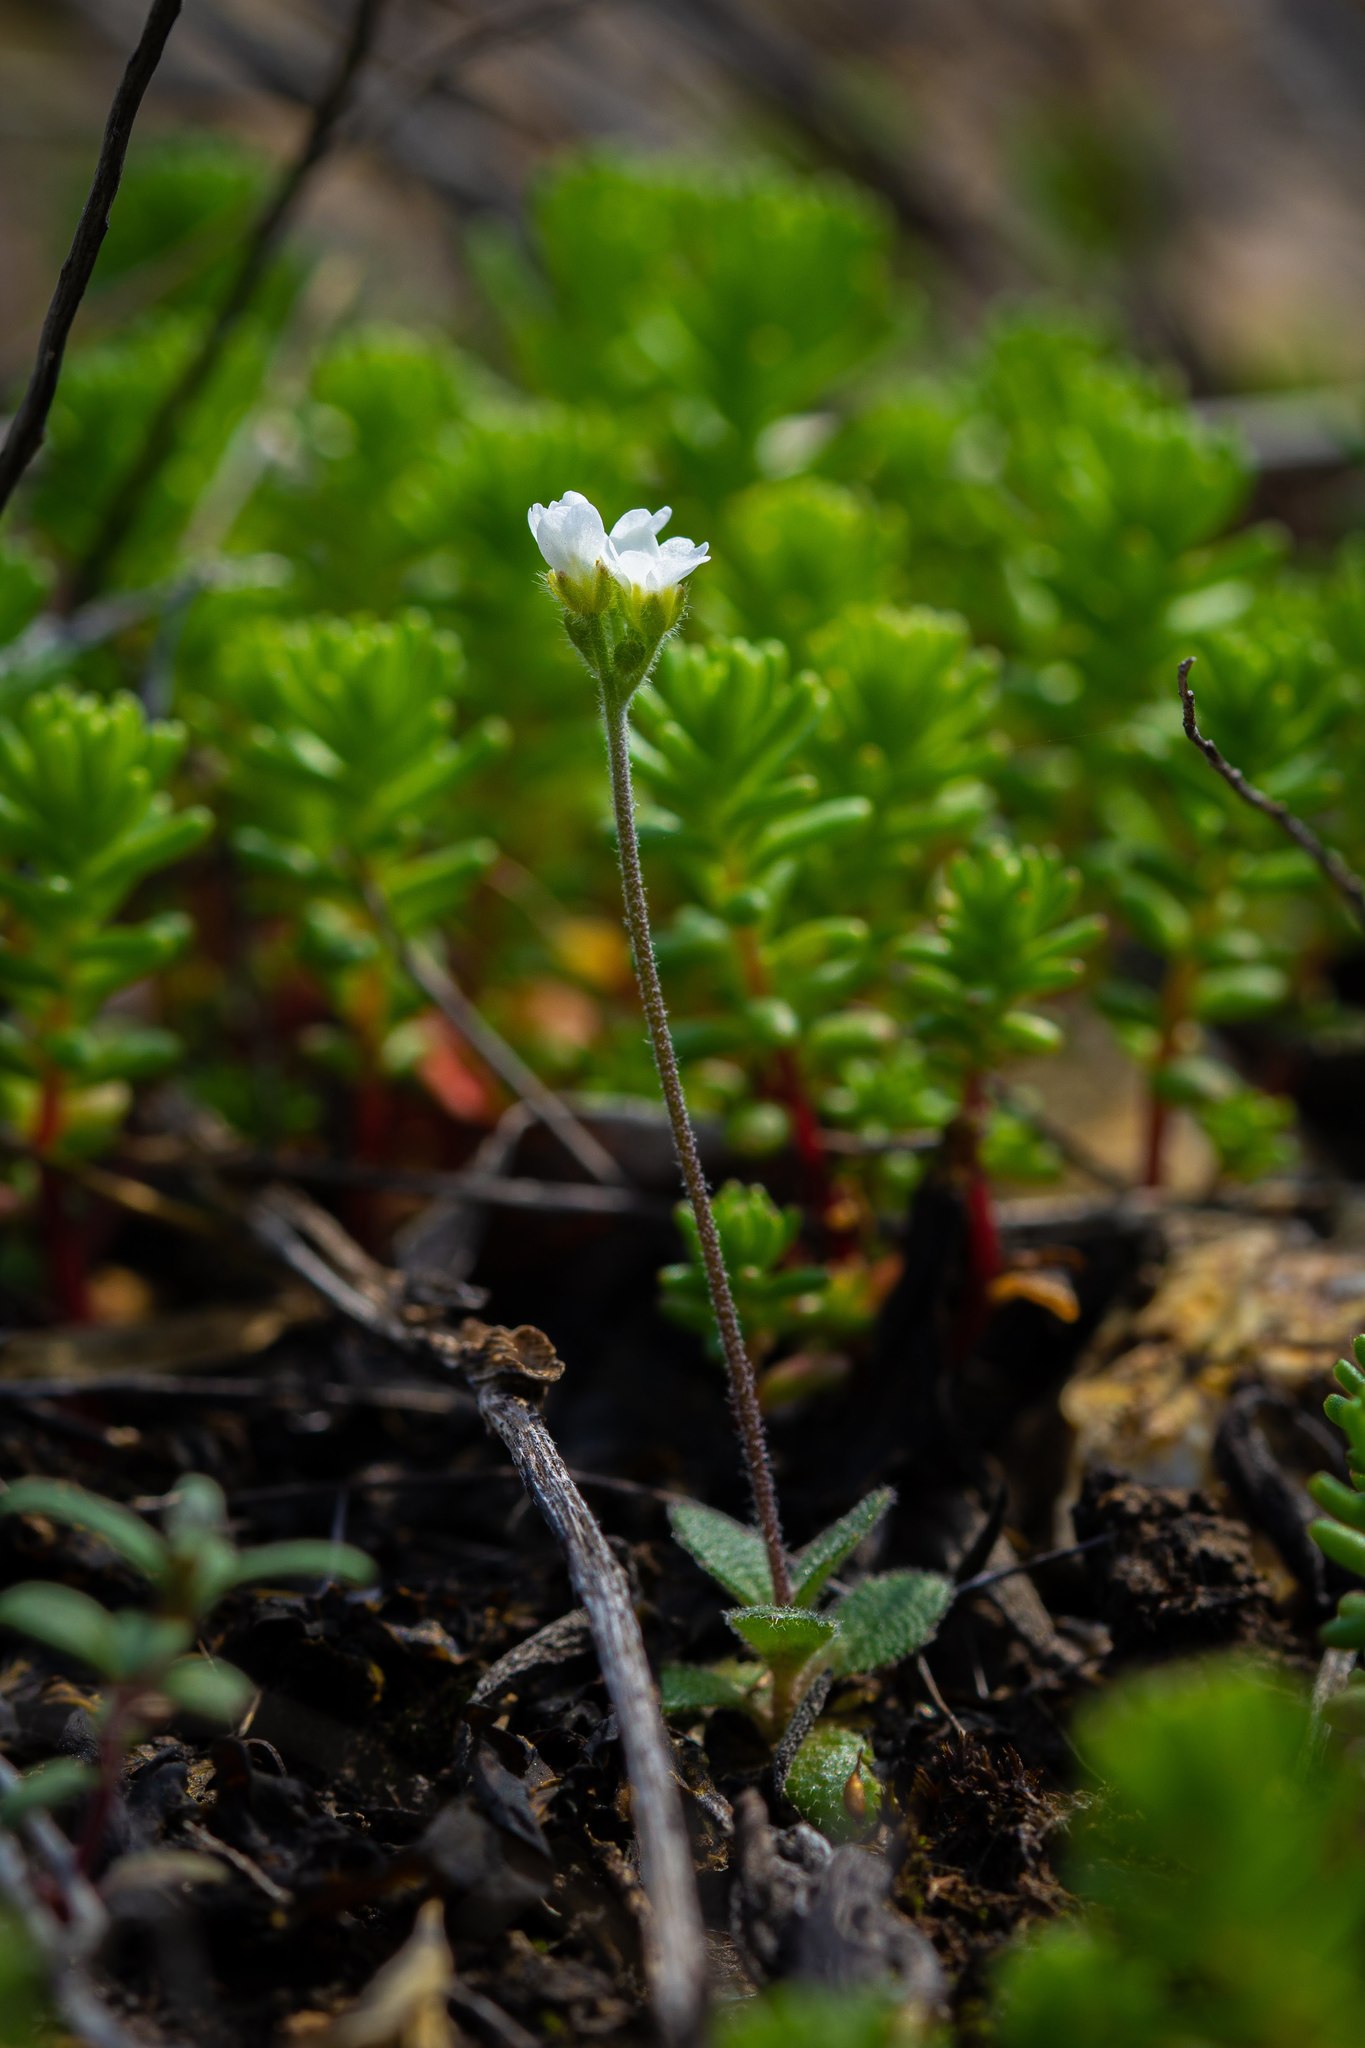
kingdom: Plantae
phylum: Tracheophyta
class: Magnoliopsida
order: Brassicales
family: Brassicaceae
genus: Tomostima
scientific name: Tomostima cuneifolia
